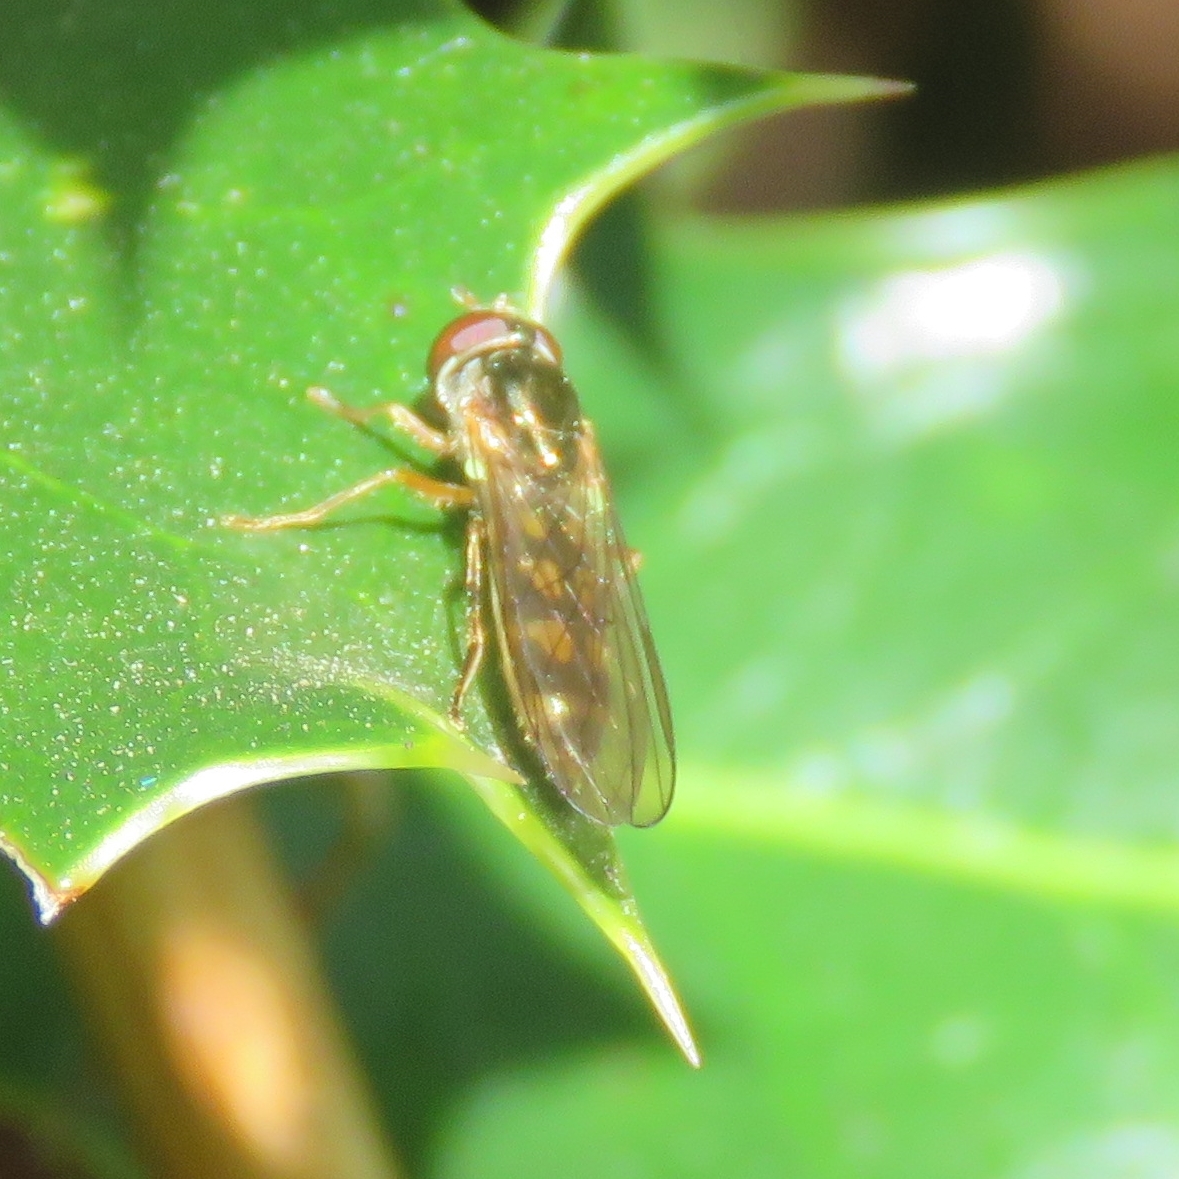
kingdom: Animalia
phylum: Arthropoda
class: Insecta
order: Diptera
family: Syrphidae
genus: Melanostoma
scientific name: Melanostoma
